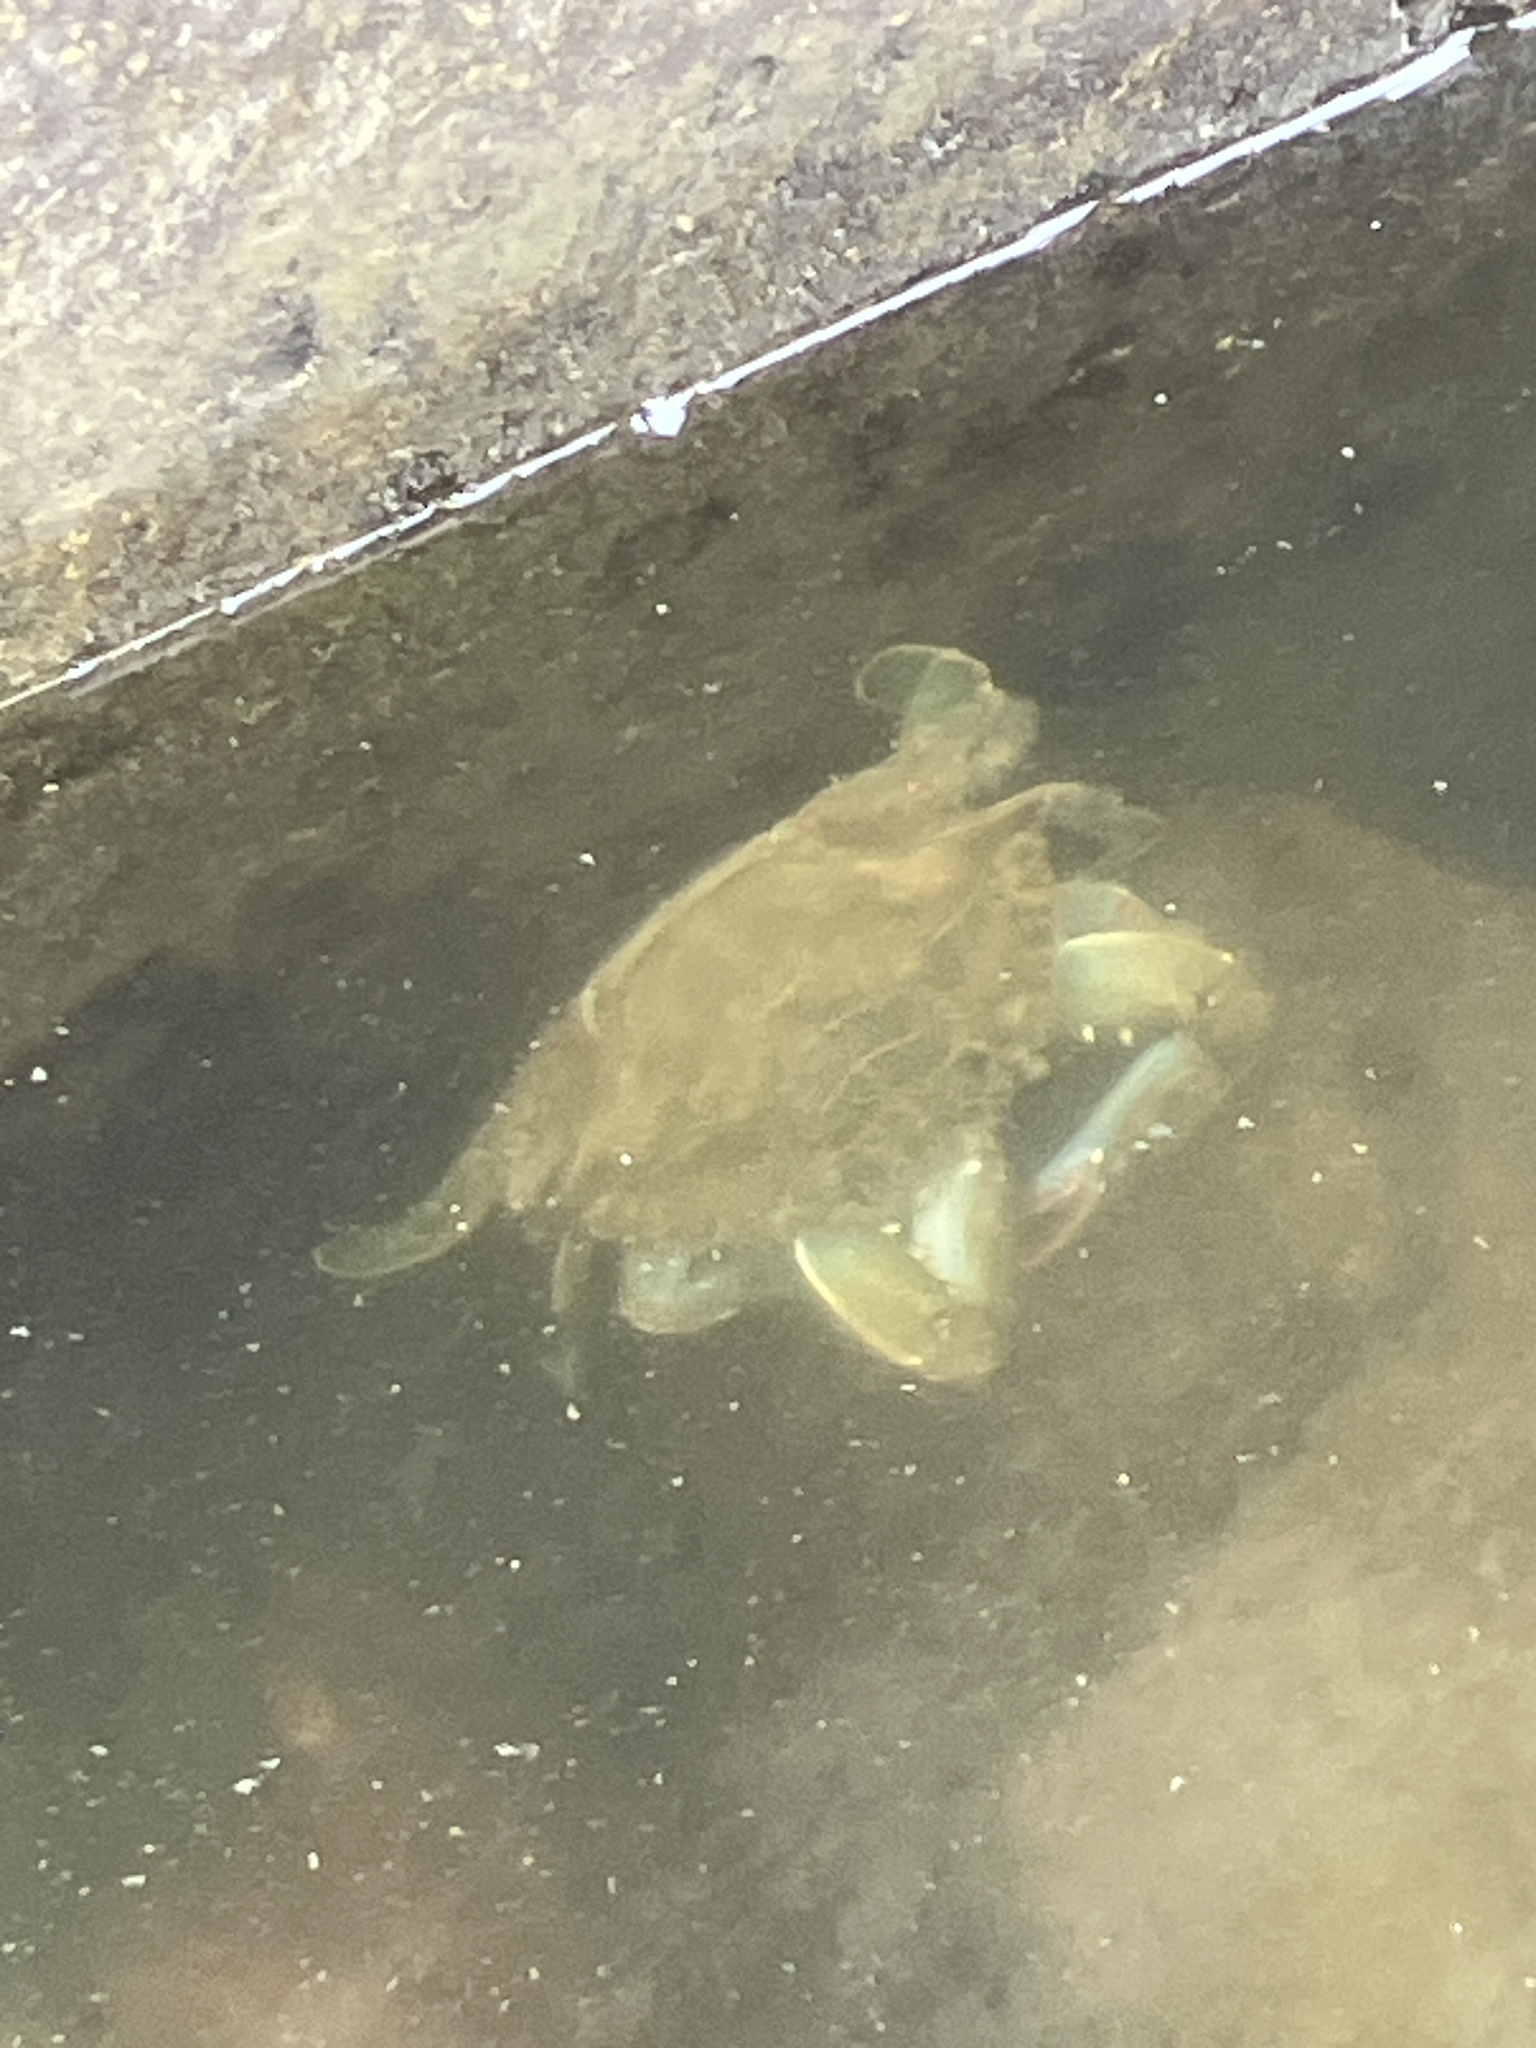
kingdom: Animalia
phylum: Arthropoda
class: Malacostraca
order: Decapoda
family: Portunidae
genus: Callinectes
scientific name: Callinectes sapidus
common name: Blue crab
